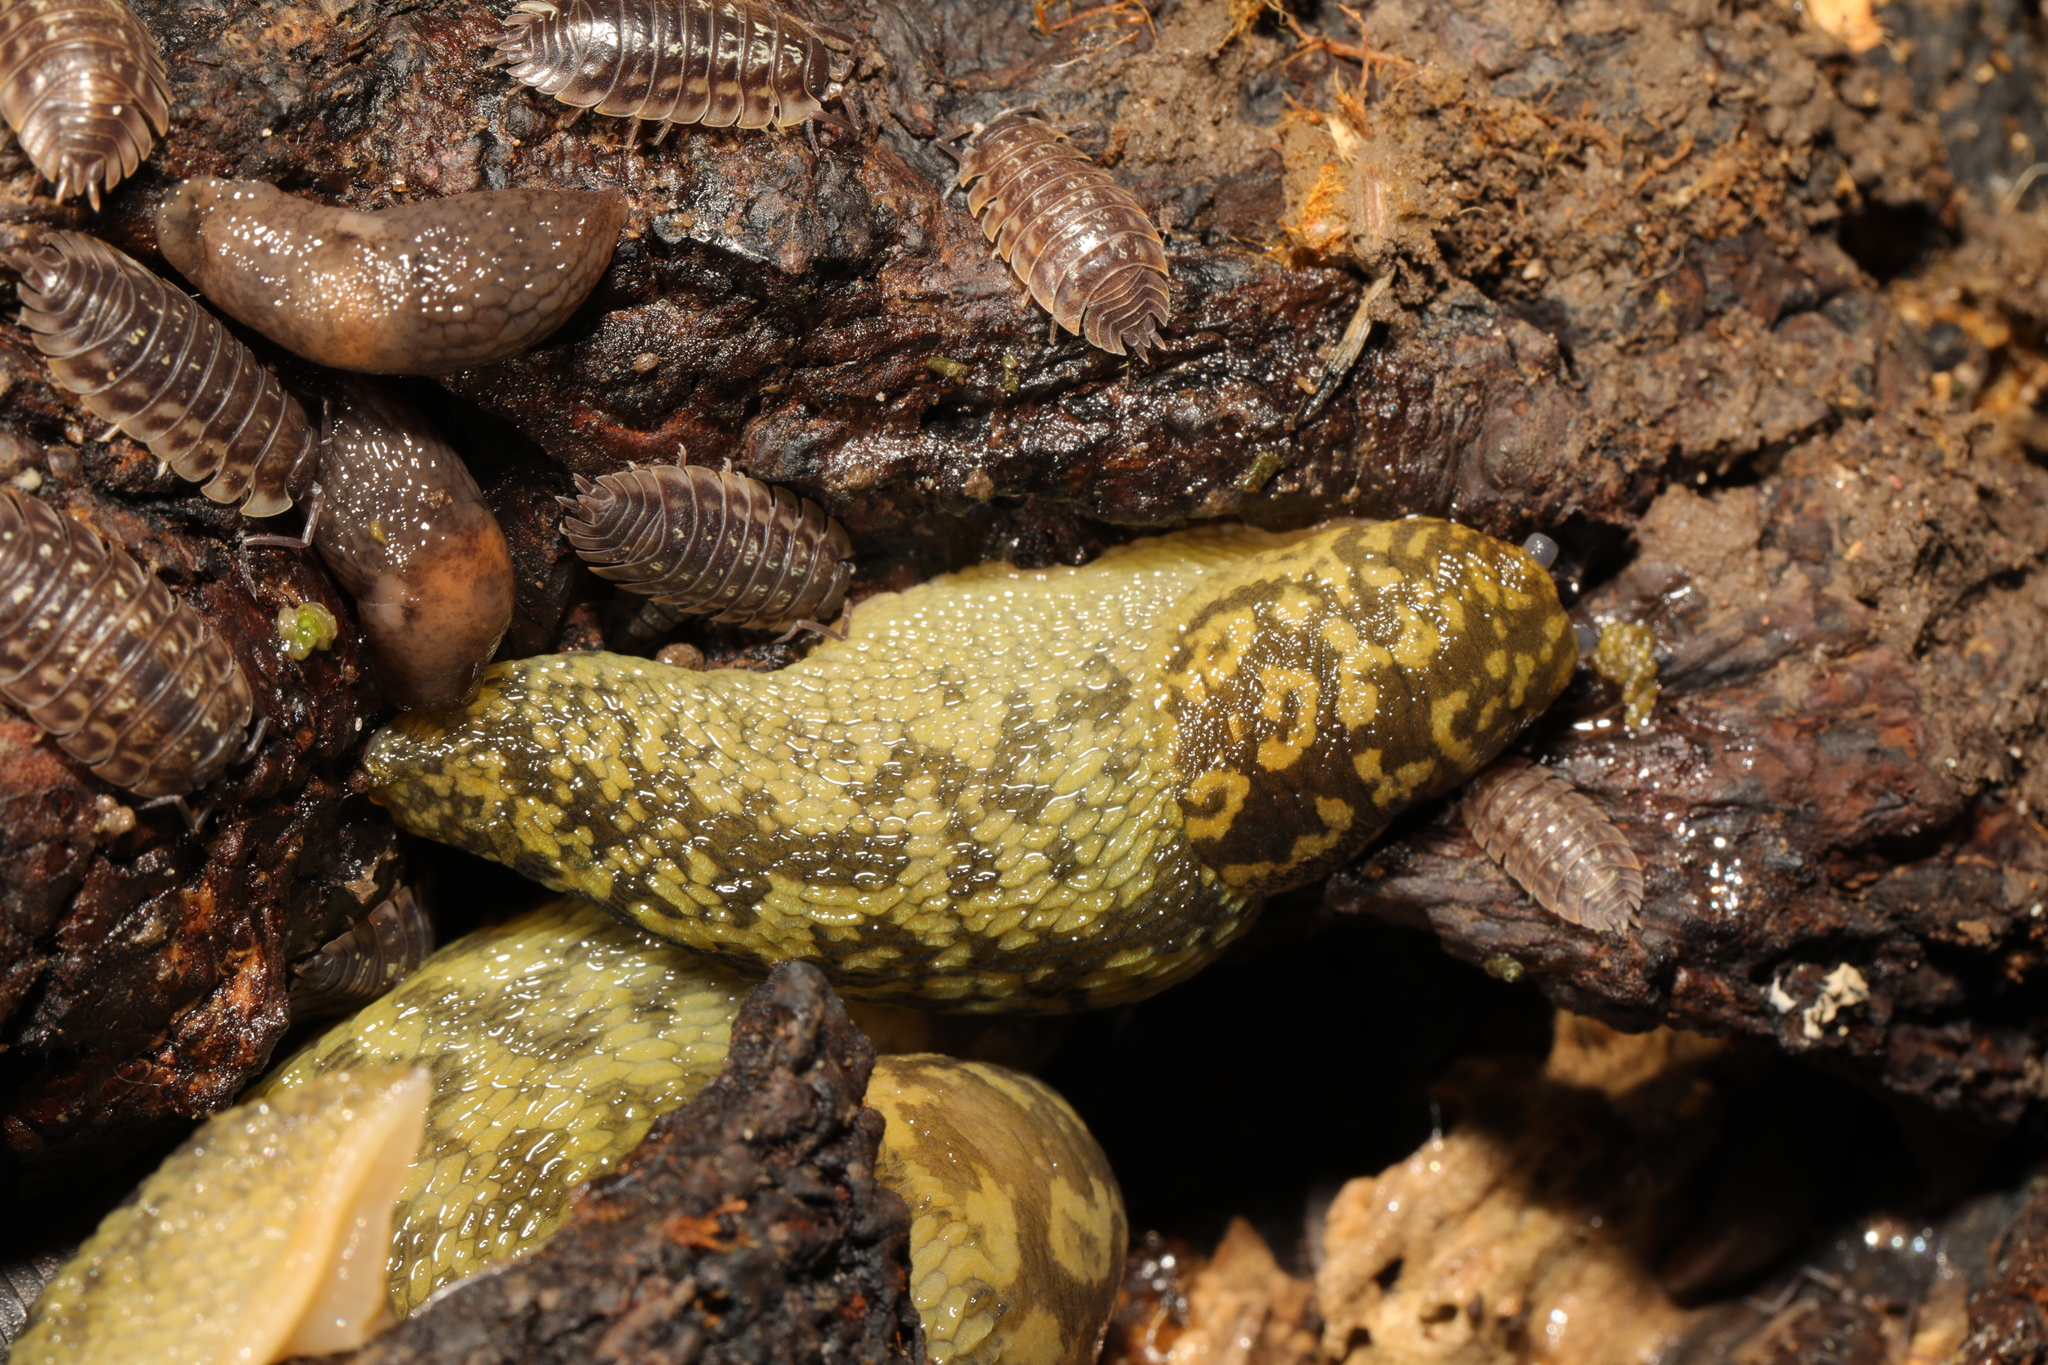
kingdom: Animalia
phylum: Mollusca
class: Gastropoda
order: Stylommatophora
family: Limacidae
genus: Limacus
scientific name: Limacus maculatus
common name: Irish yellow slug
